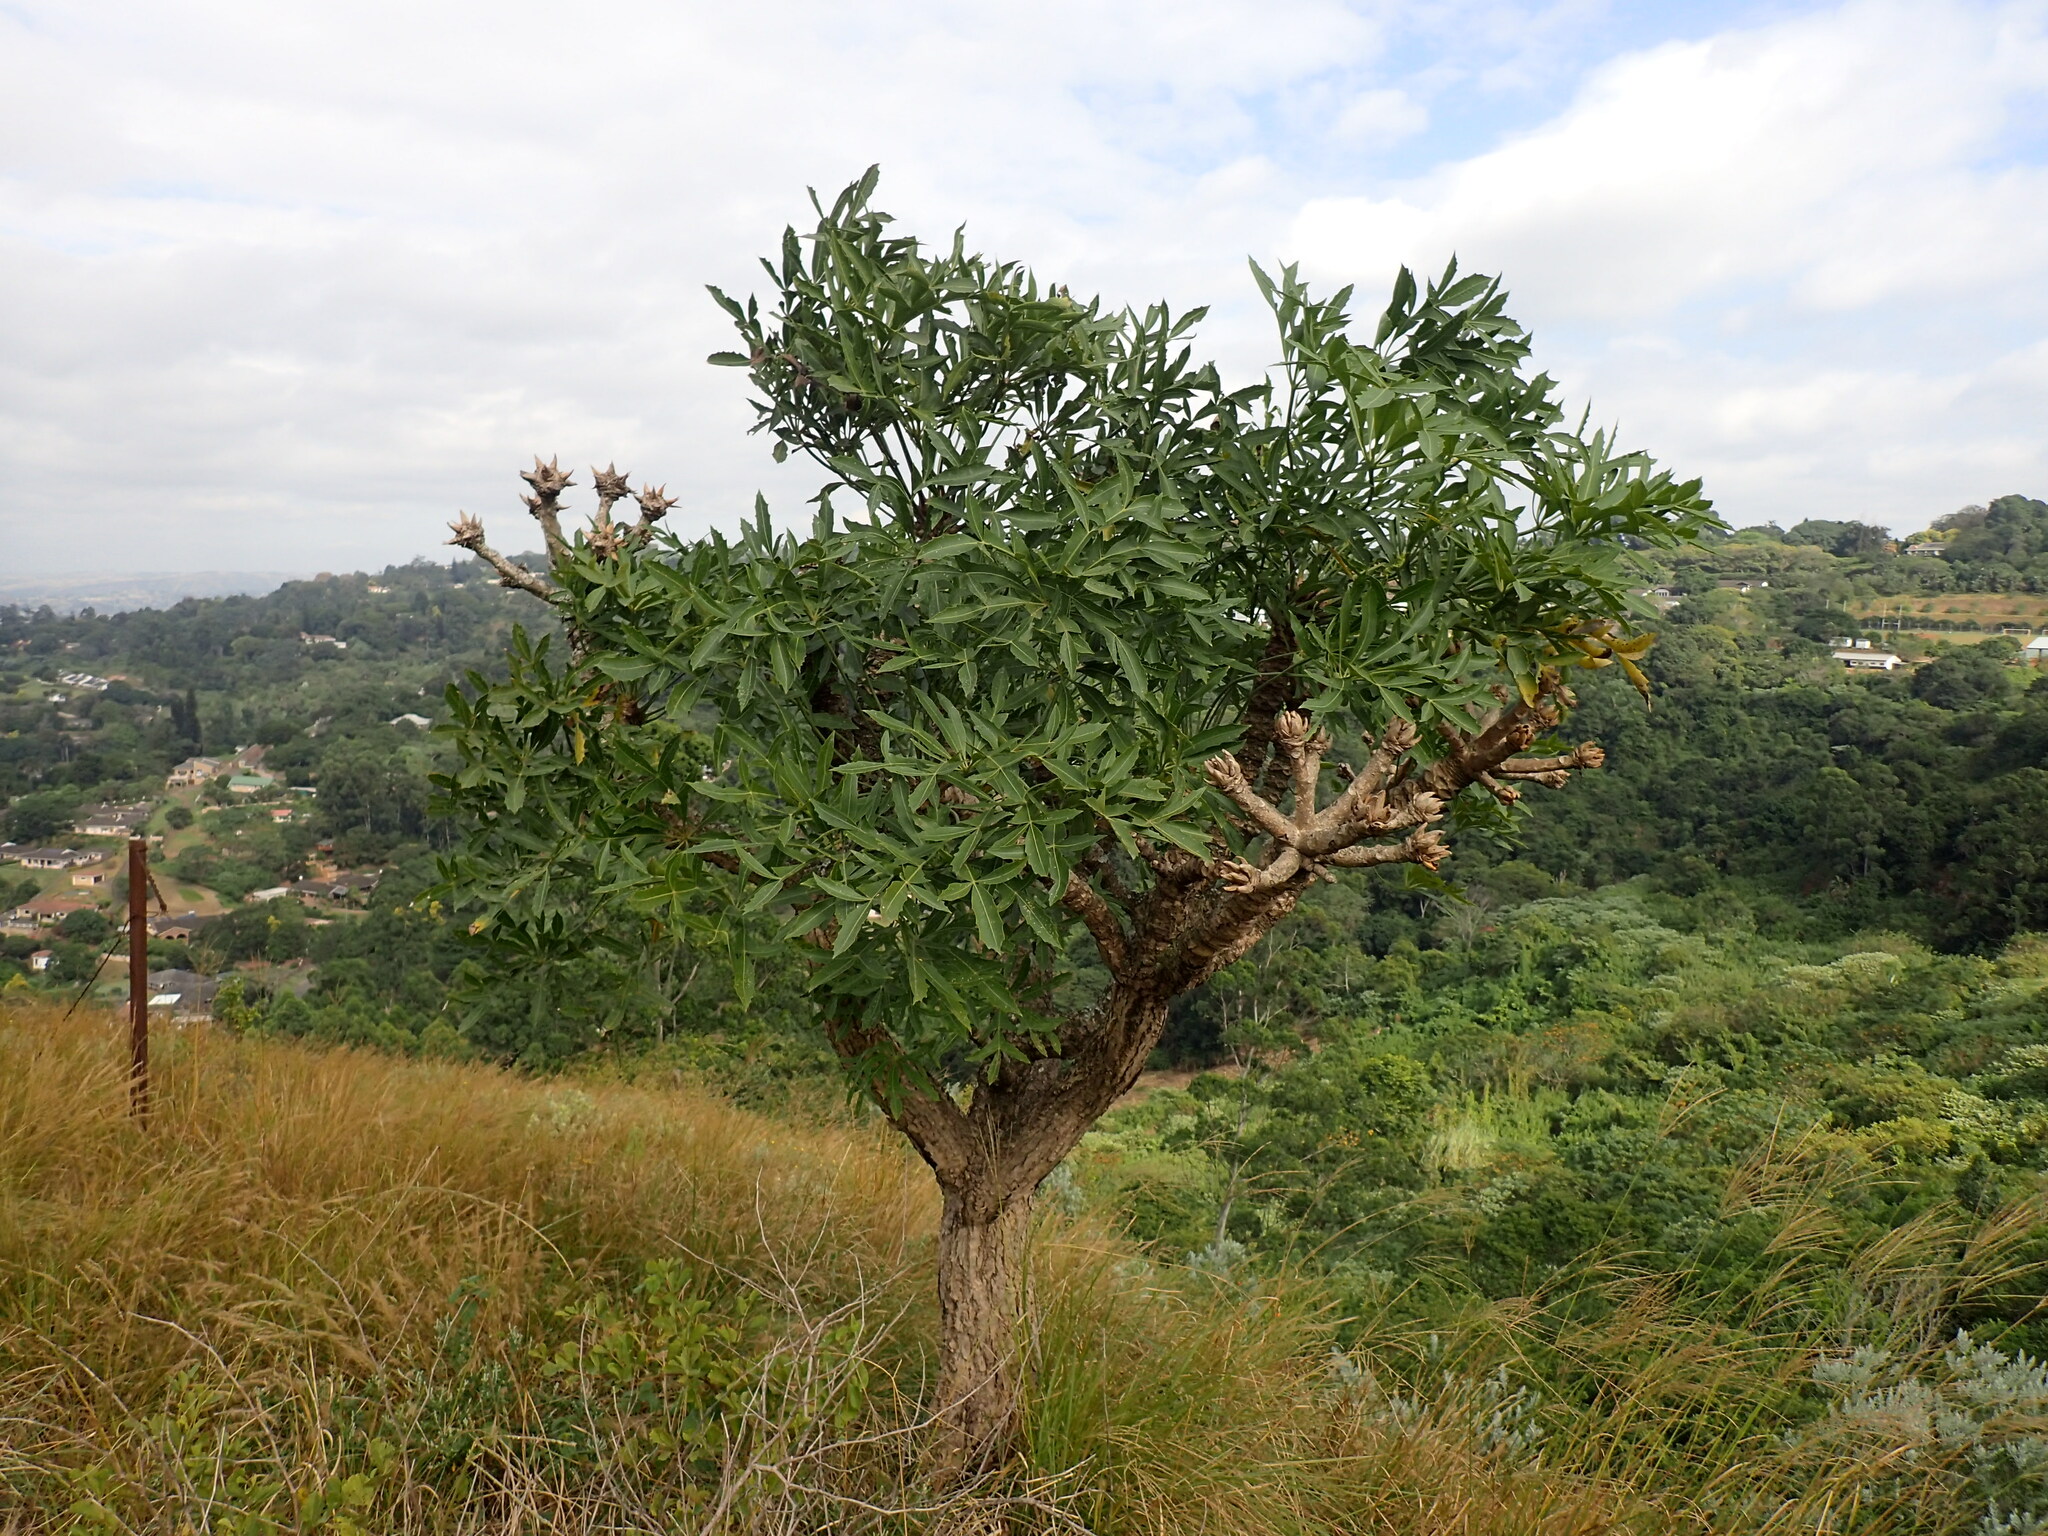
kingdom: Plantae
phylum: Tracheophyta
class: Magnoliopsida
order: Apiales
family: Araliaceae
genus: Cussonia
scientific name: Cussonia spicata
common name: Common cabbagetree
